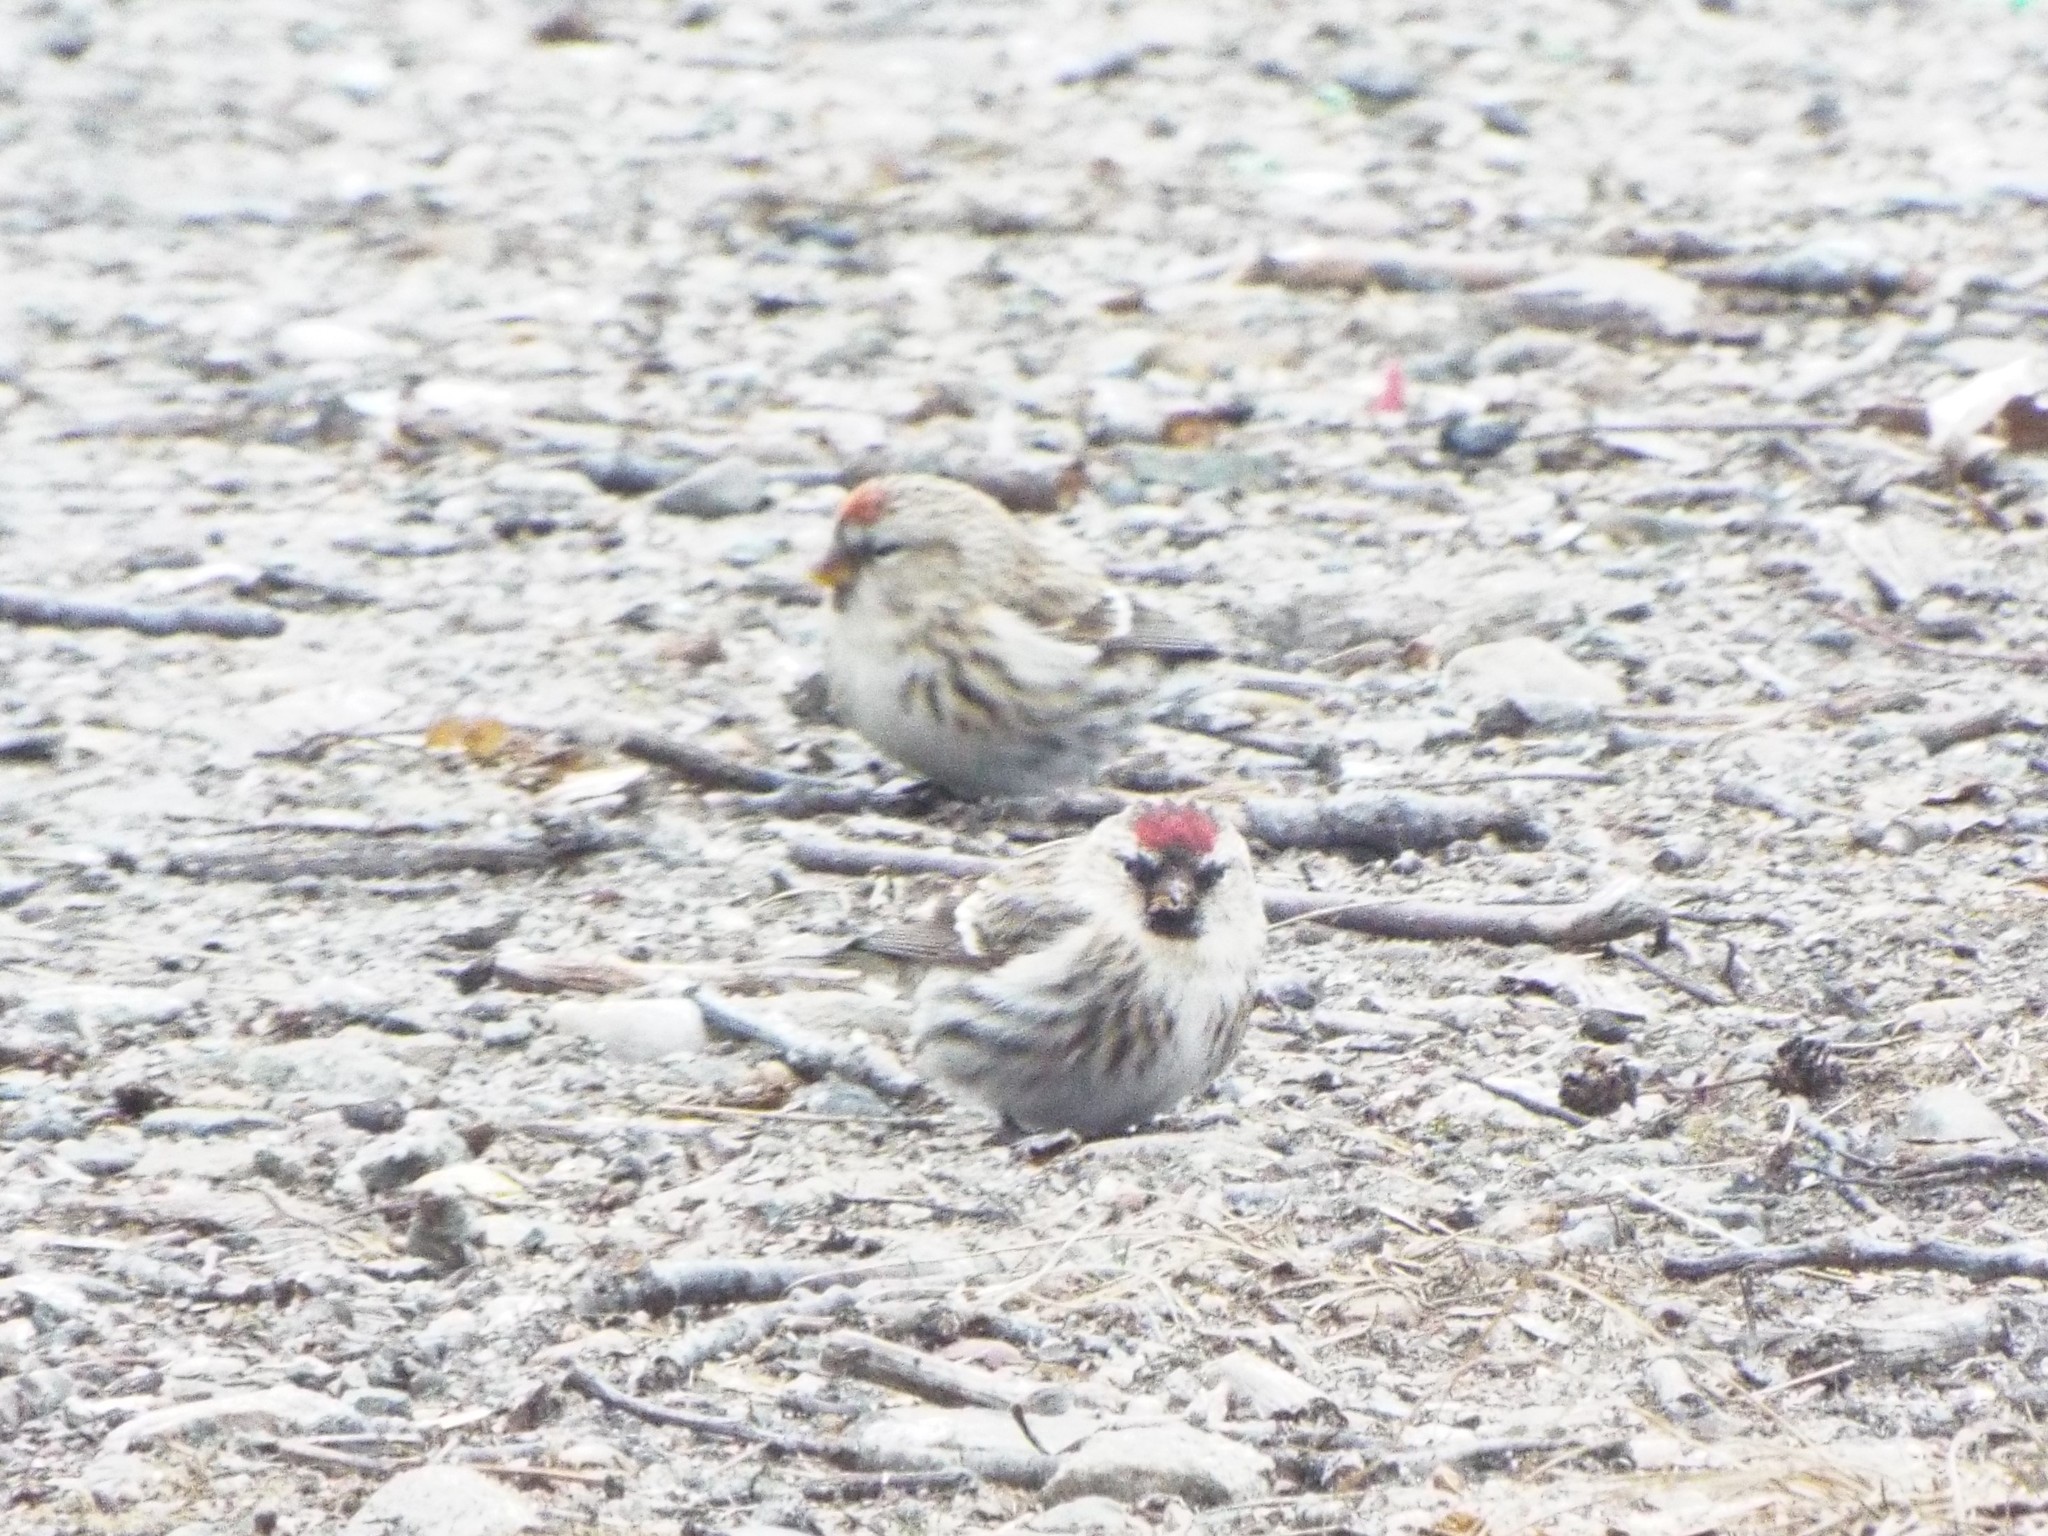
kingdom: Animalia
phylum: Chordata
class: Aves
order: Passeriformes
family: Fringillidae
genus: Acanthis
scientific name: Acanthis flammea
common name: Common redpoll
